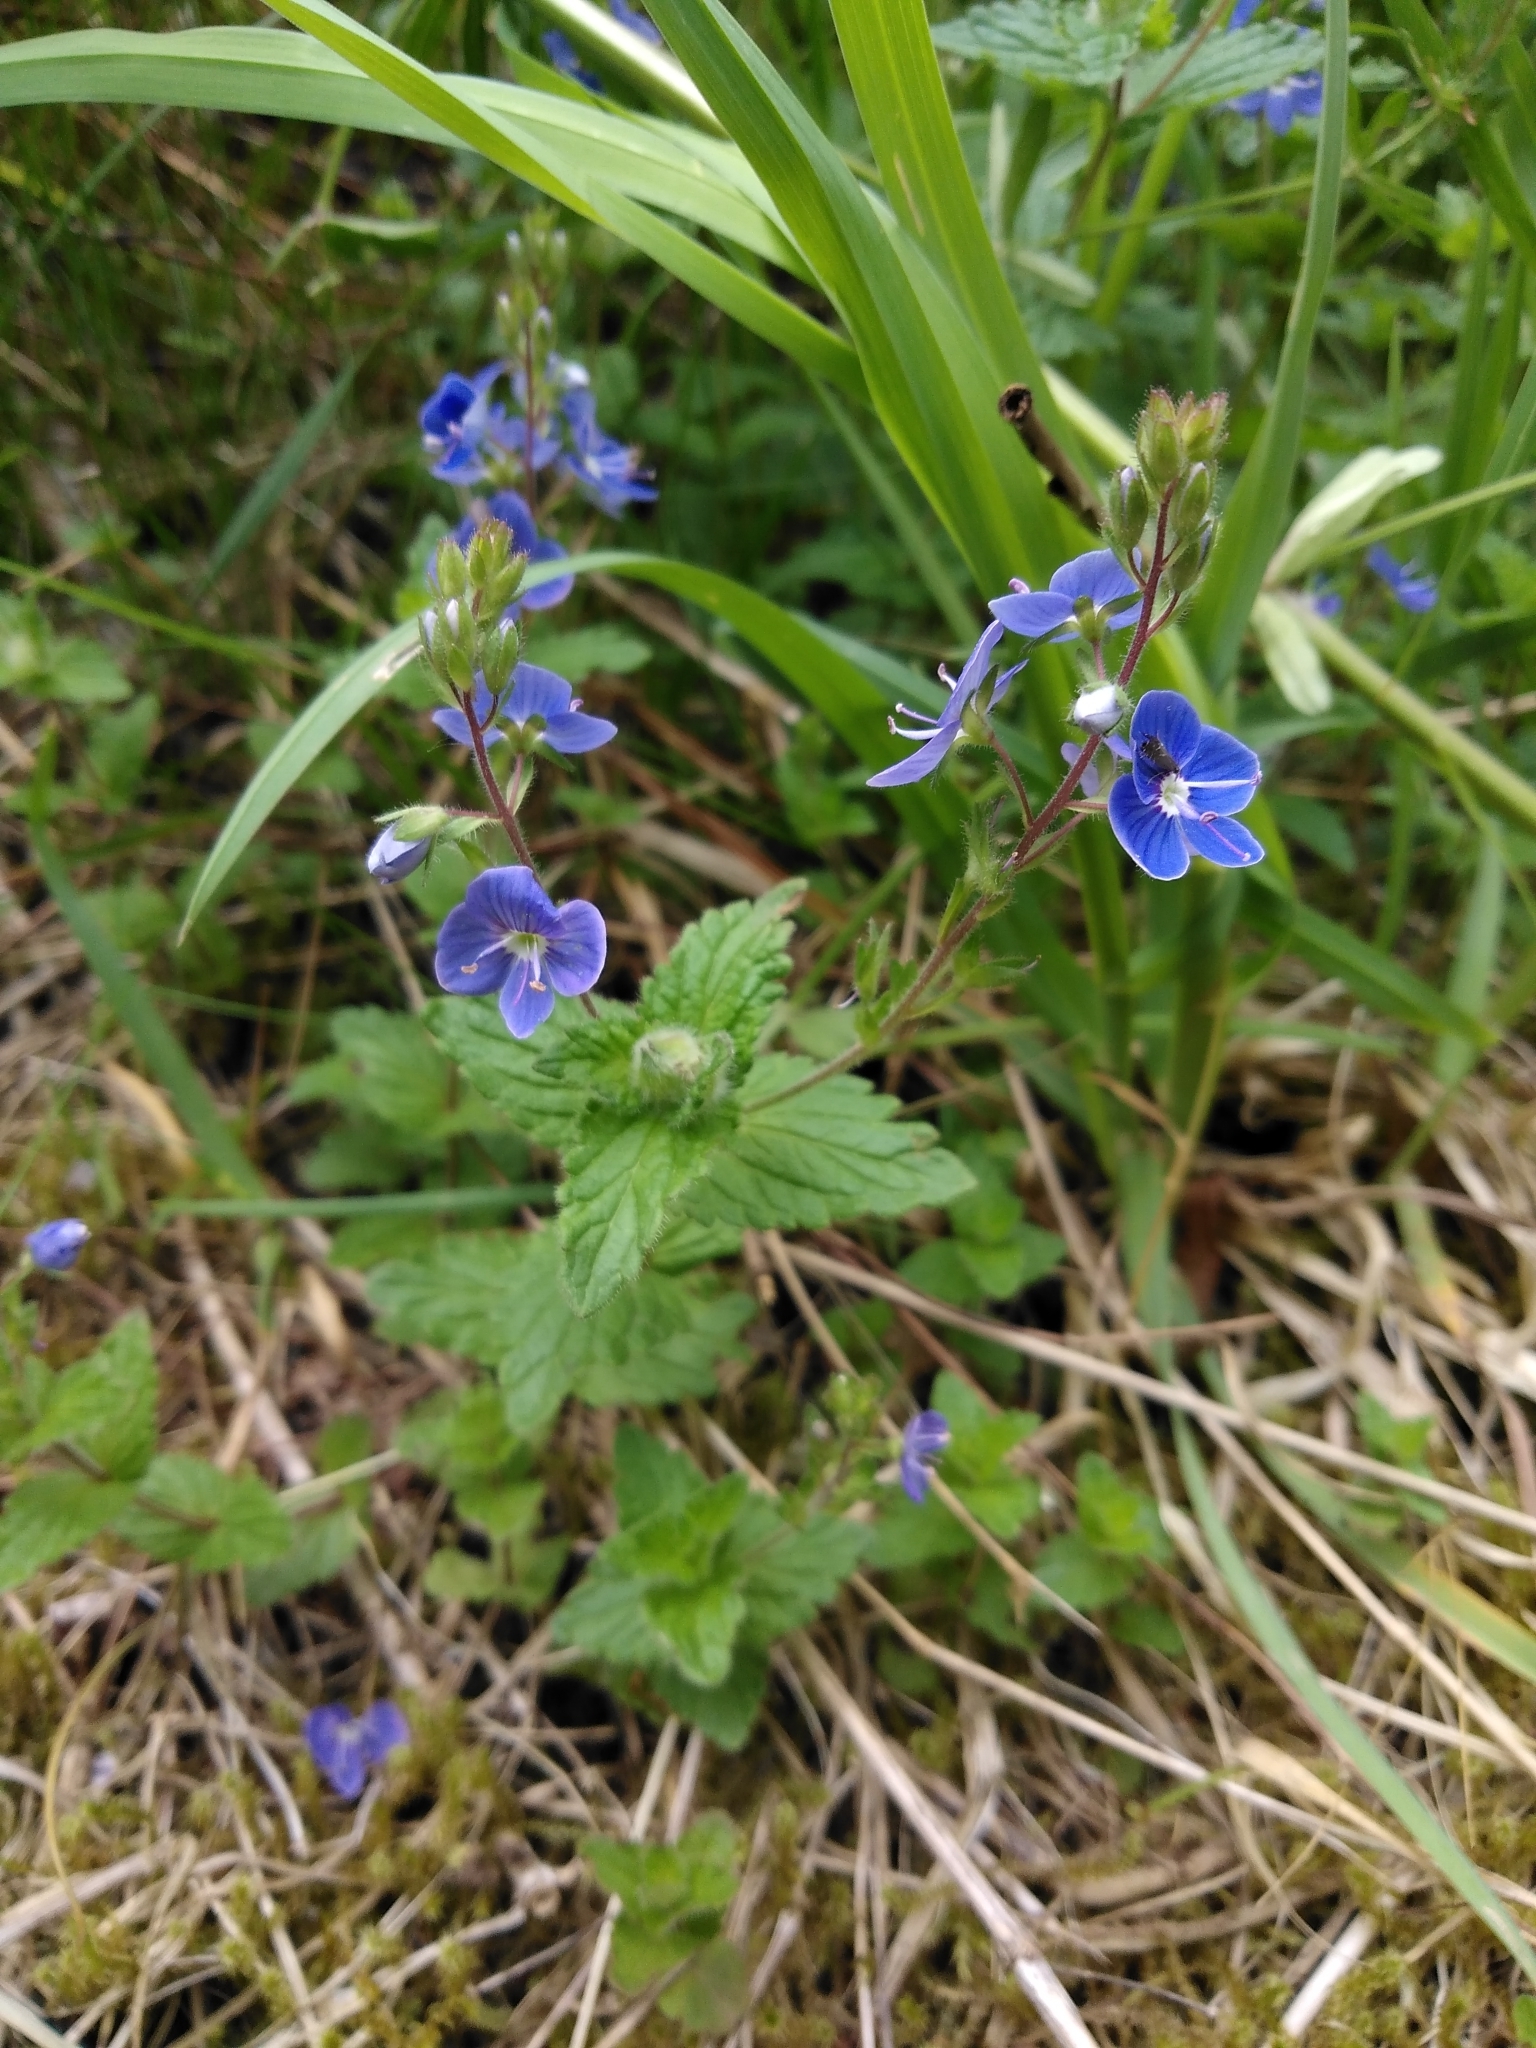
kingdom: Plantae
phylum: Tracheophyta
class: Magnoliopsida
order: Lamiales
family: Plantaginaceae
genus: Veronica
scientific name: Veronica chamaedrys
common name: Germander speedwell
